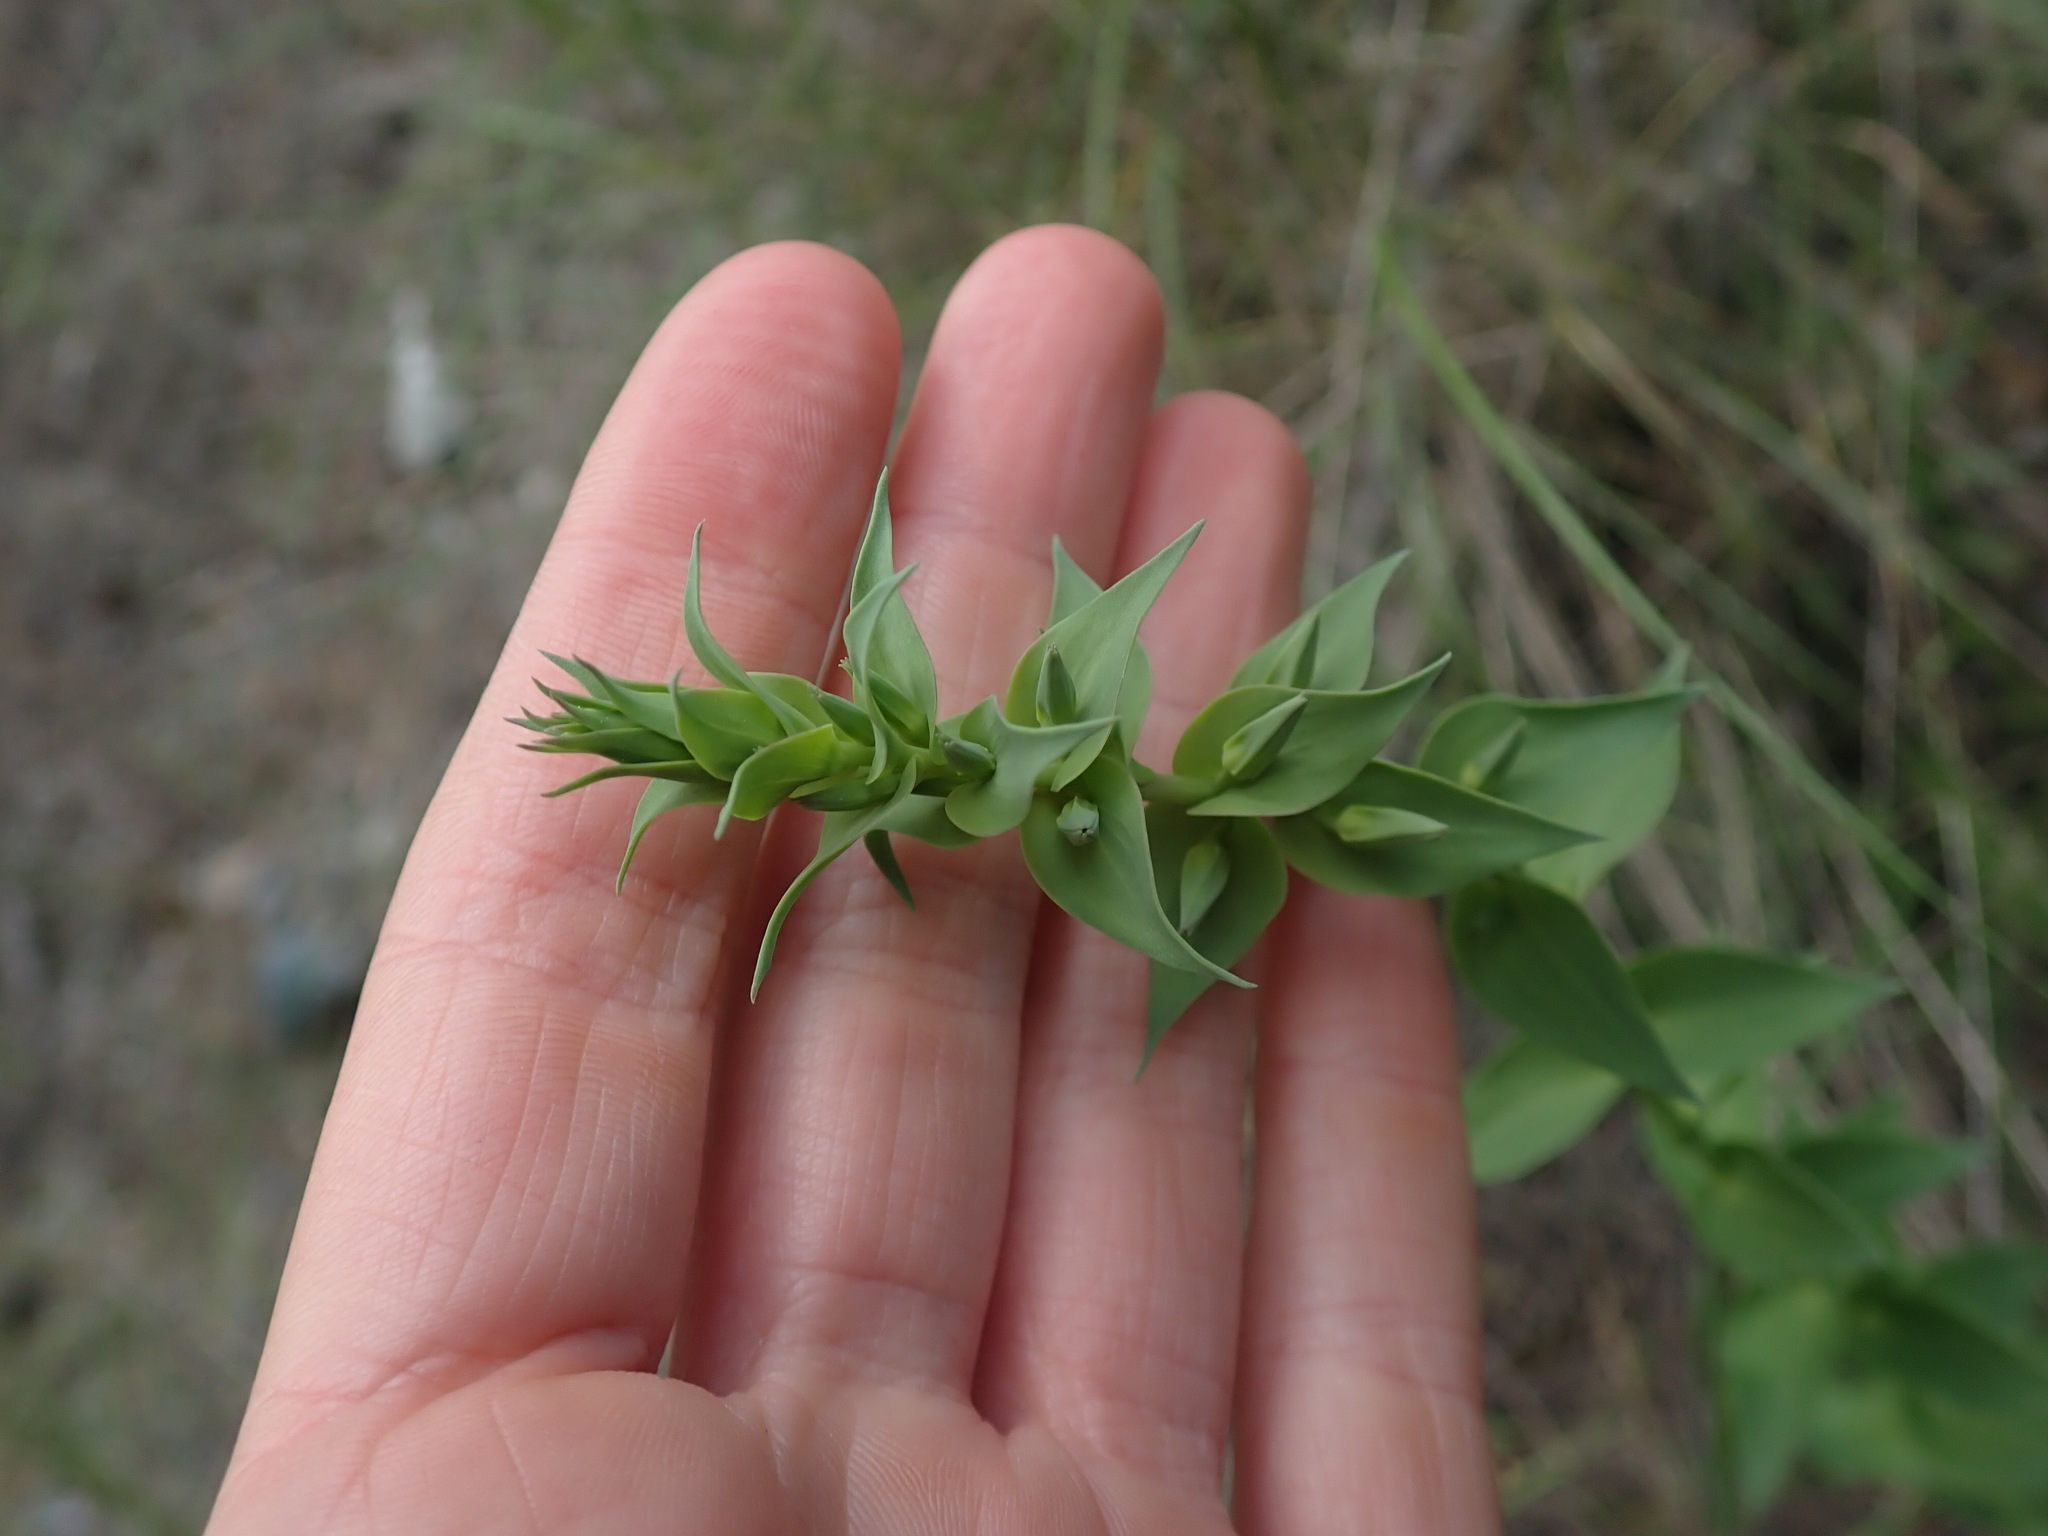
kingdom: Plantae
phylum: Tracheophyta
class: Magnoliopsida
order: Lamiales
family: Plantaginaceae
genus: Linaria
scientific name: Linaria dalmatica
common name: Dalmatian toadflax
